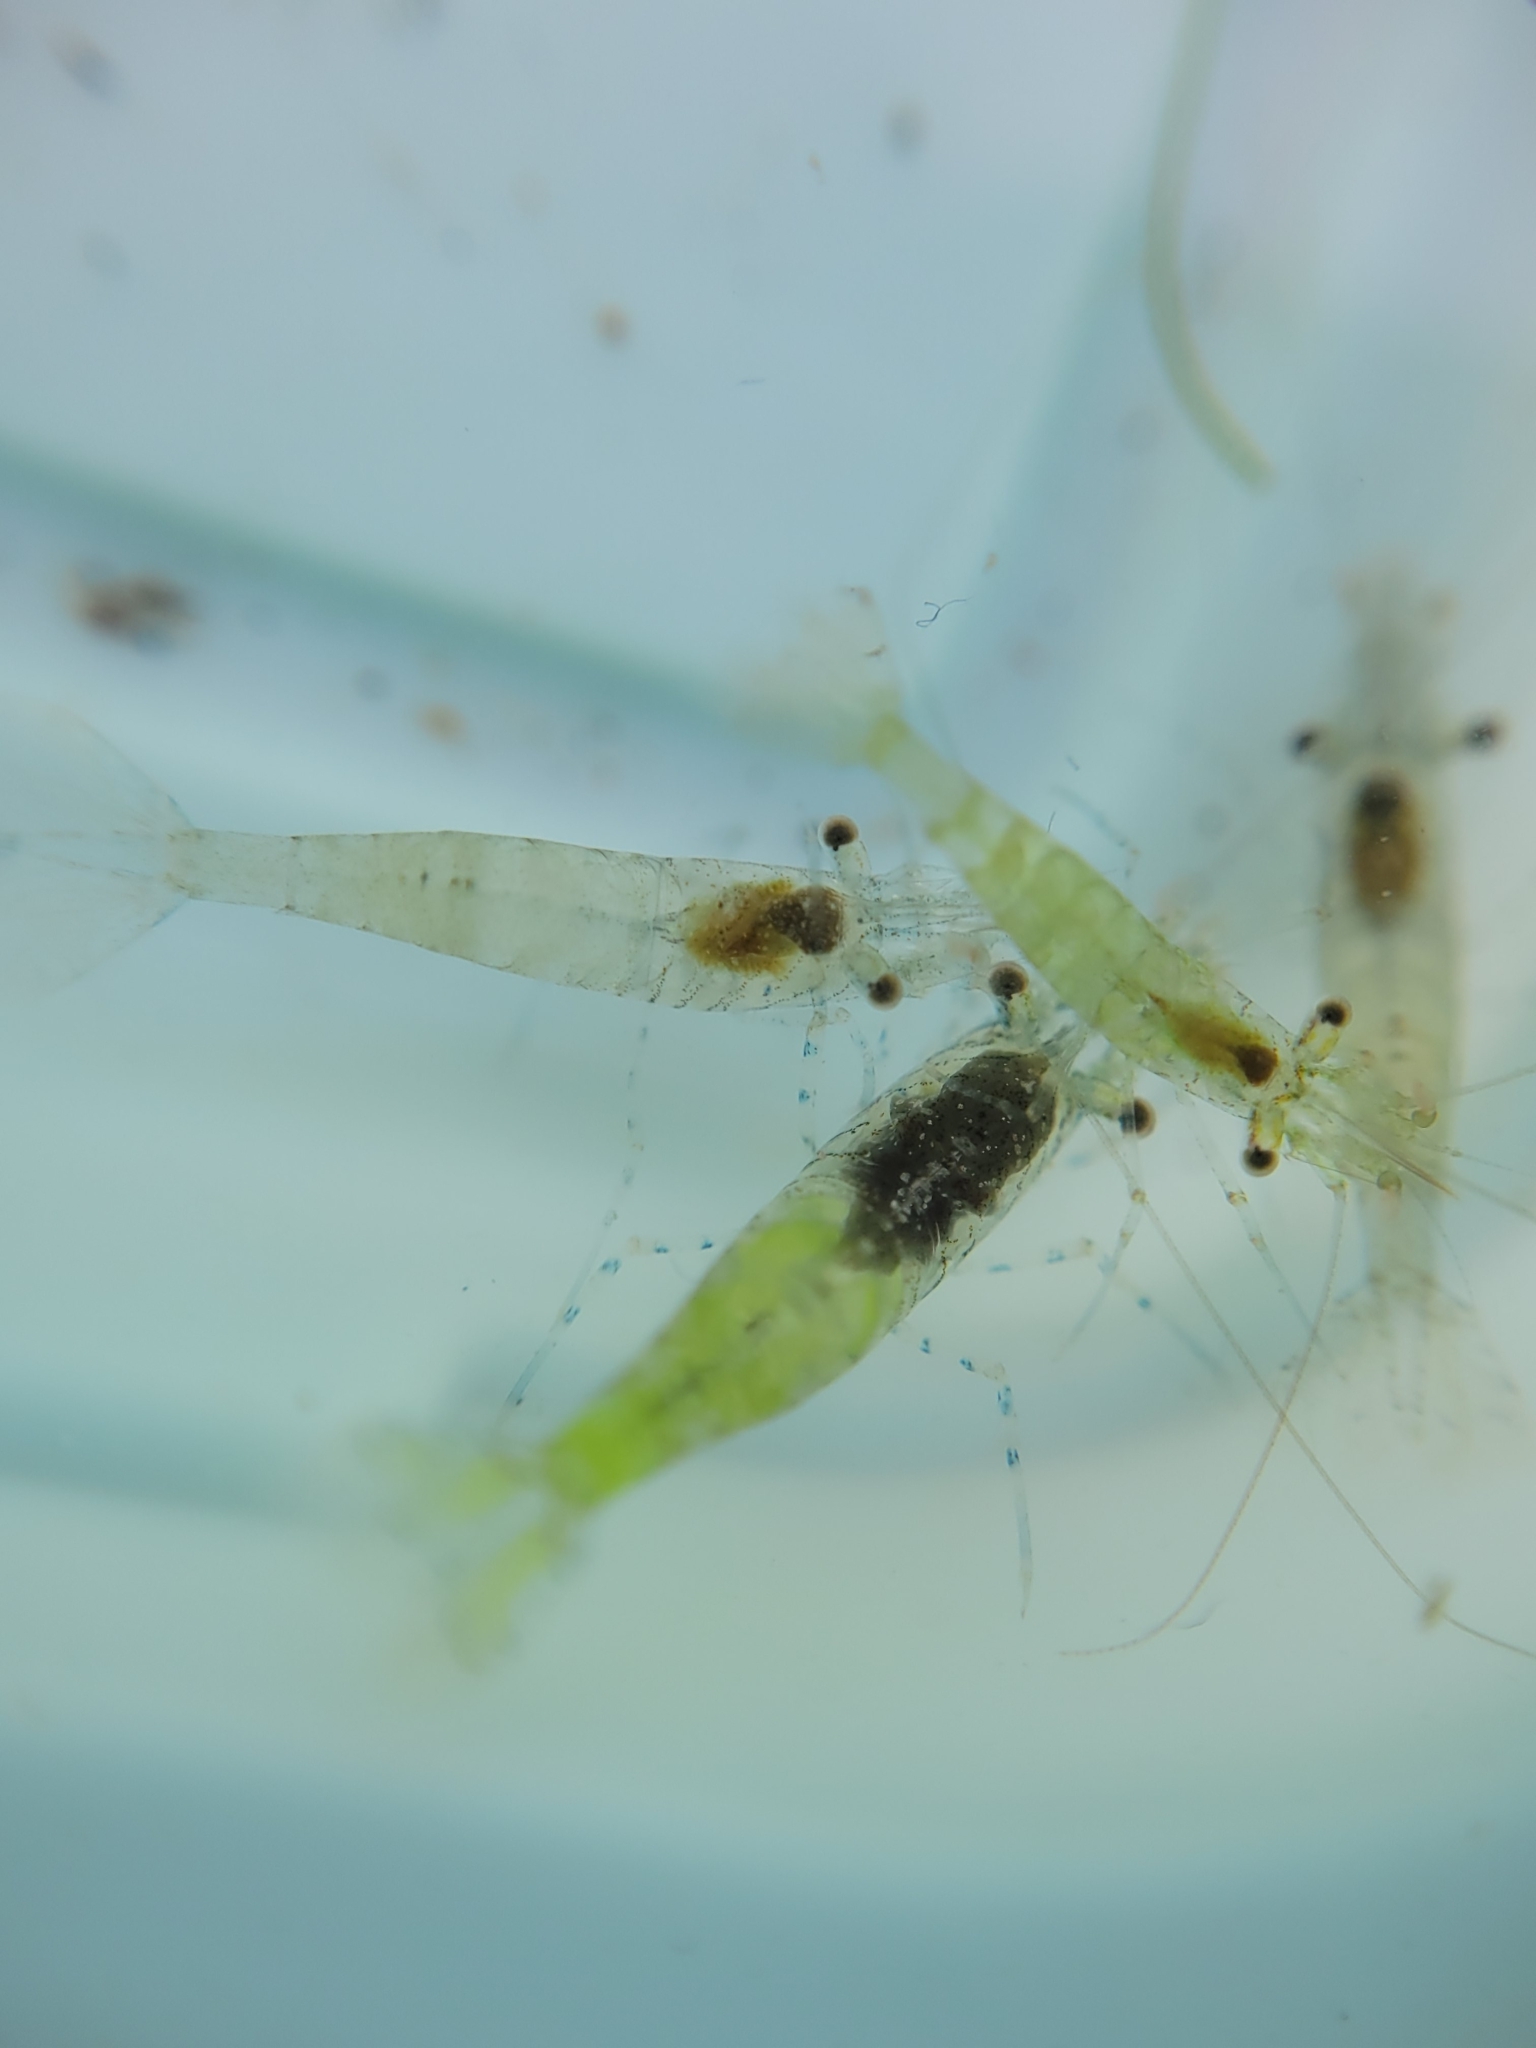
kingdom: Animalia
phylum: Arthropoda
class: Malacostraca
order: Decapoda
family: Thoridae
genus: Heptacarpus
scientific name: Heptacarpus sitchensis
